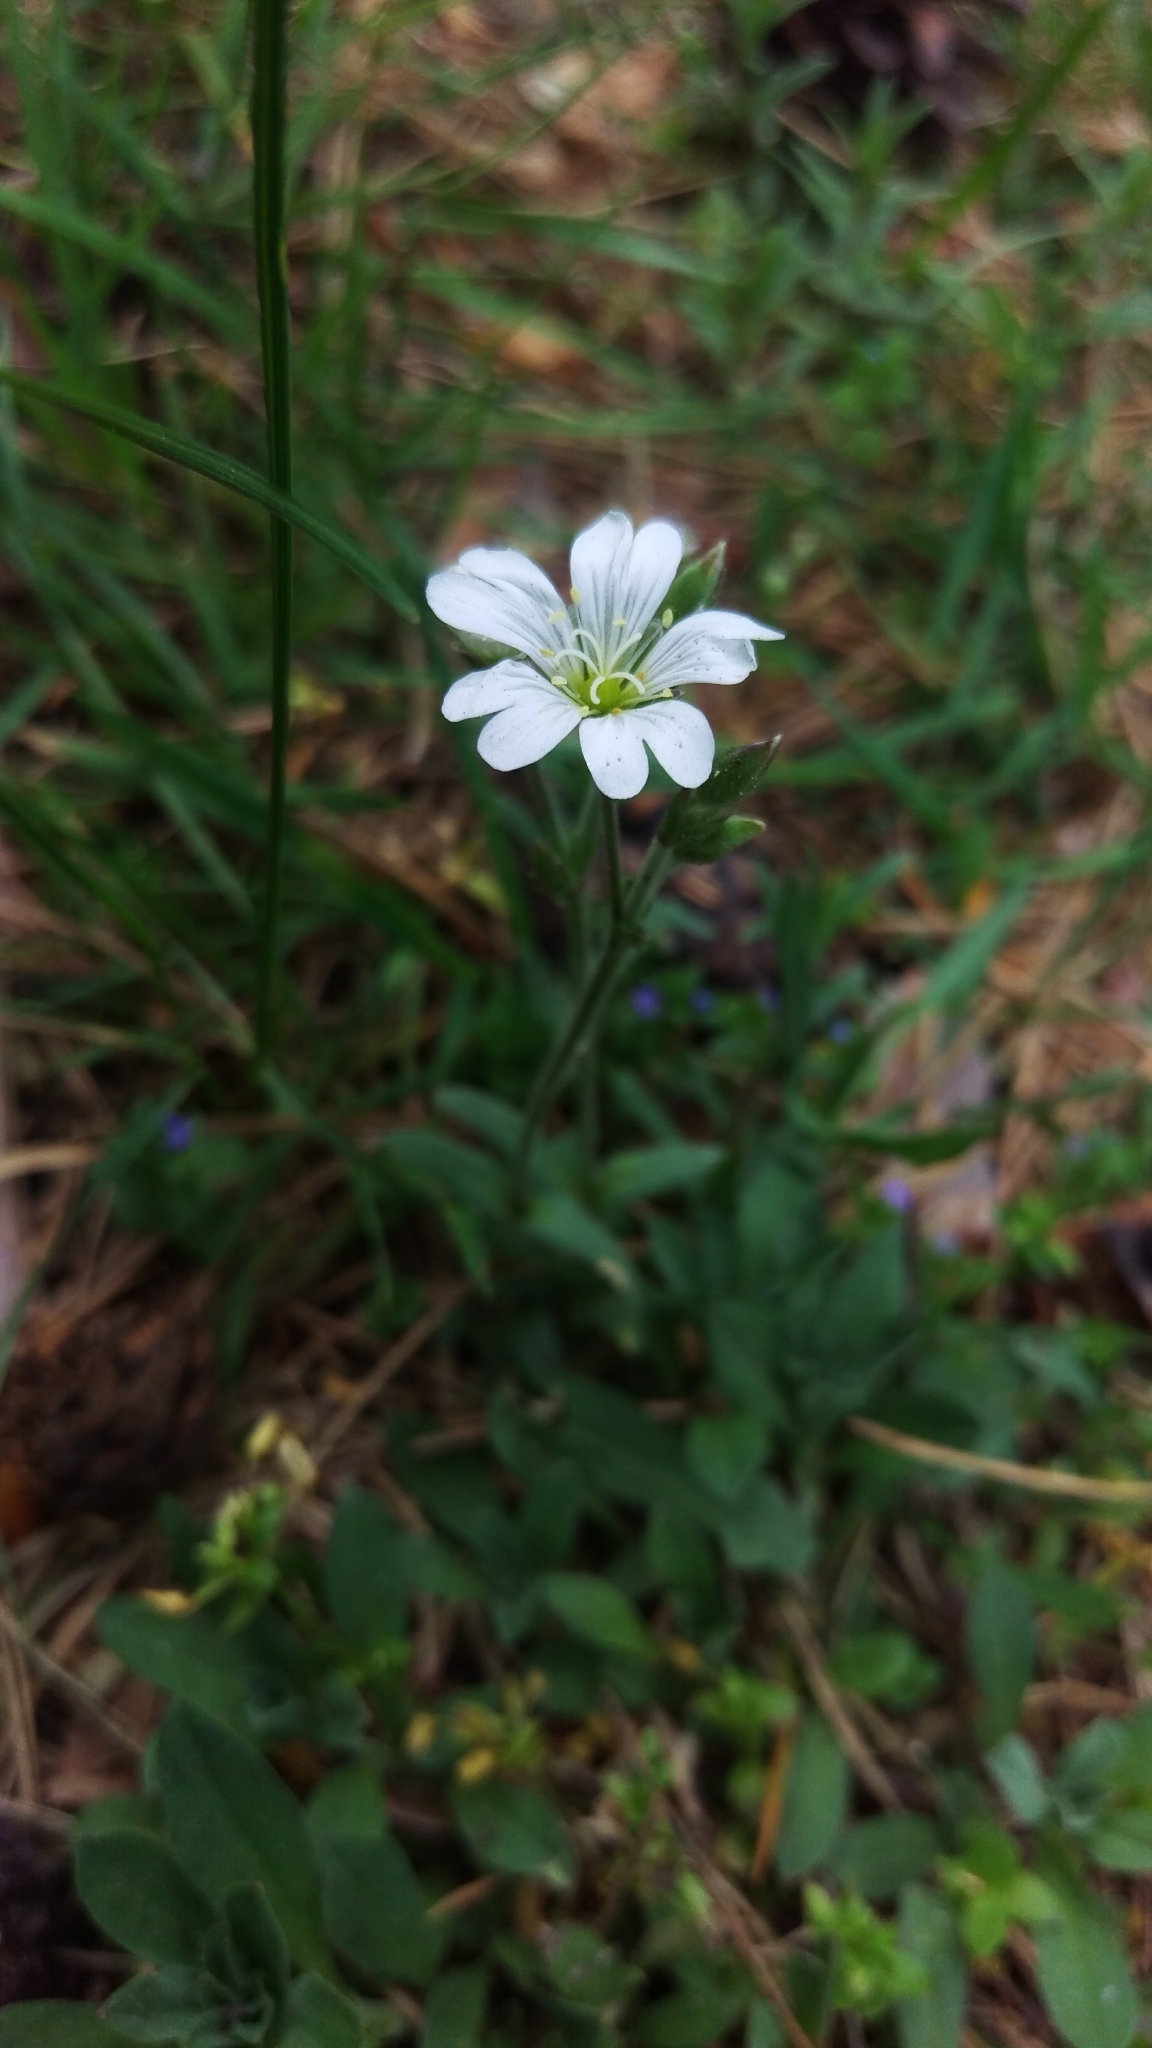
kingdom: Plantae
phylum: Tracheophyta
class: Magnoliopsida
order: Caryophyllales
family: Caryophyllaceae
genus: Cerastium
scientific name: Cerastium arvense
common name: Field mouse-ear
